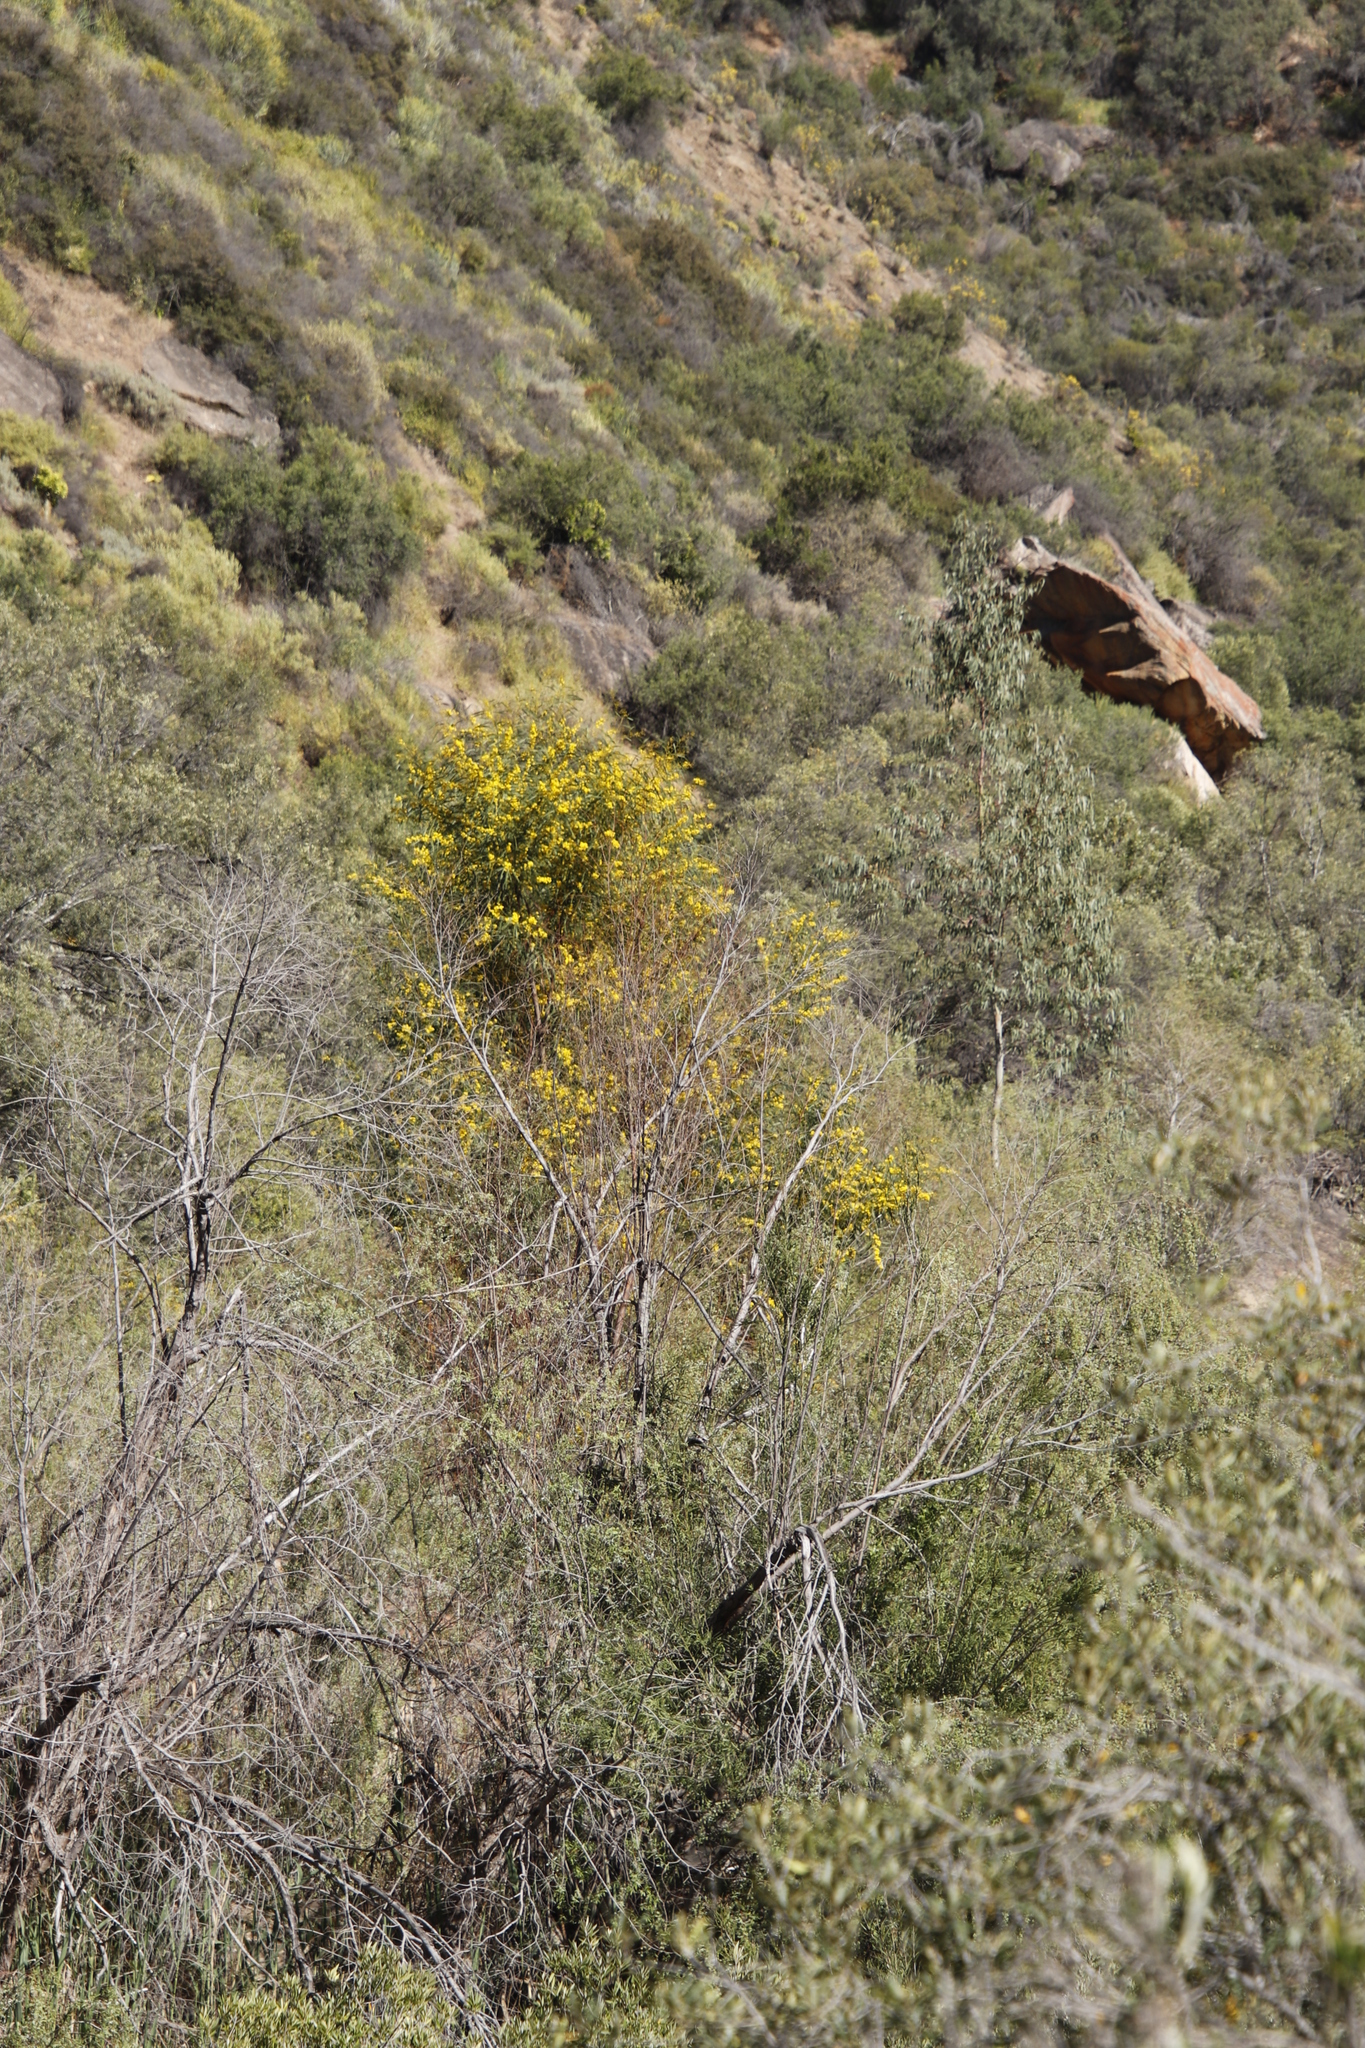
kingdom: Plantae
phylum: Tracheophyta
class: Magnoliopsida
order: Fabales
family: Fabaceae
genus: Acacia
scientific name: Acacia saligna
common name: Orange wattle
